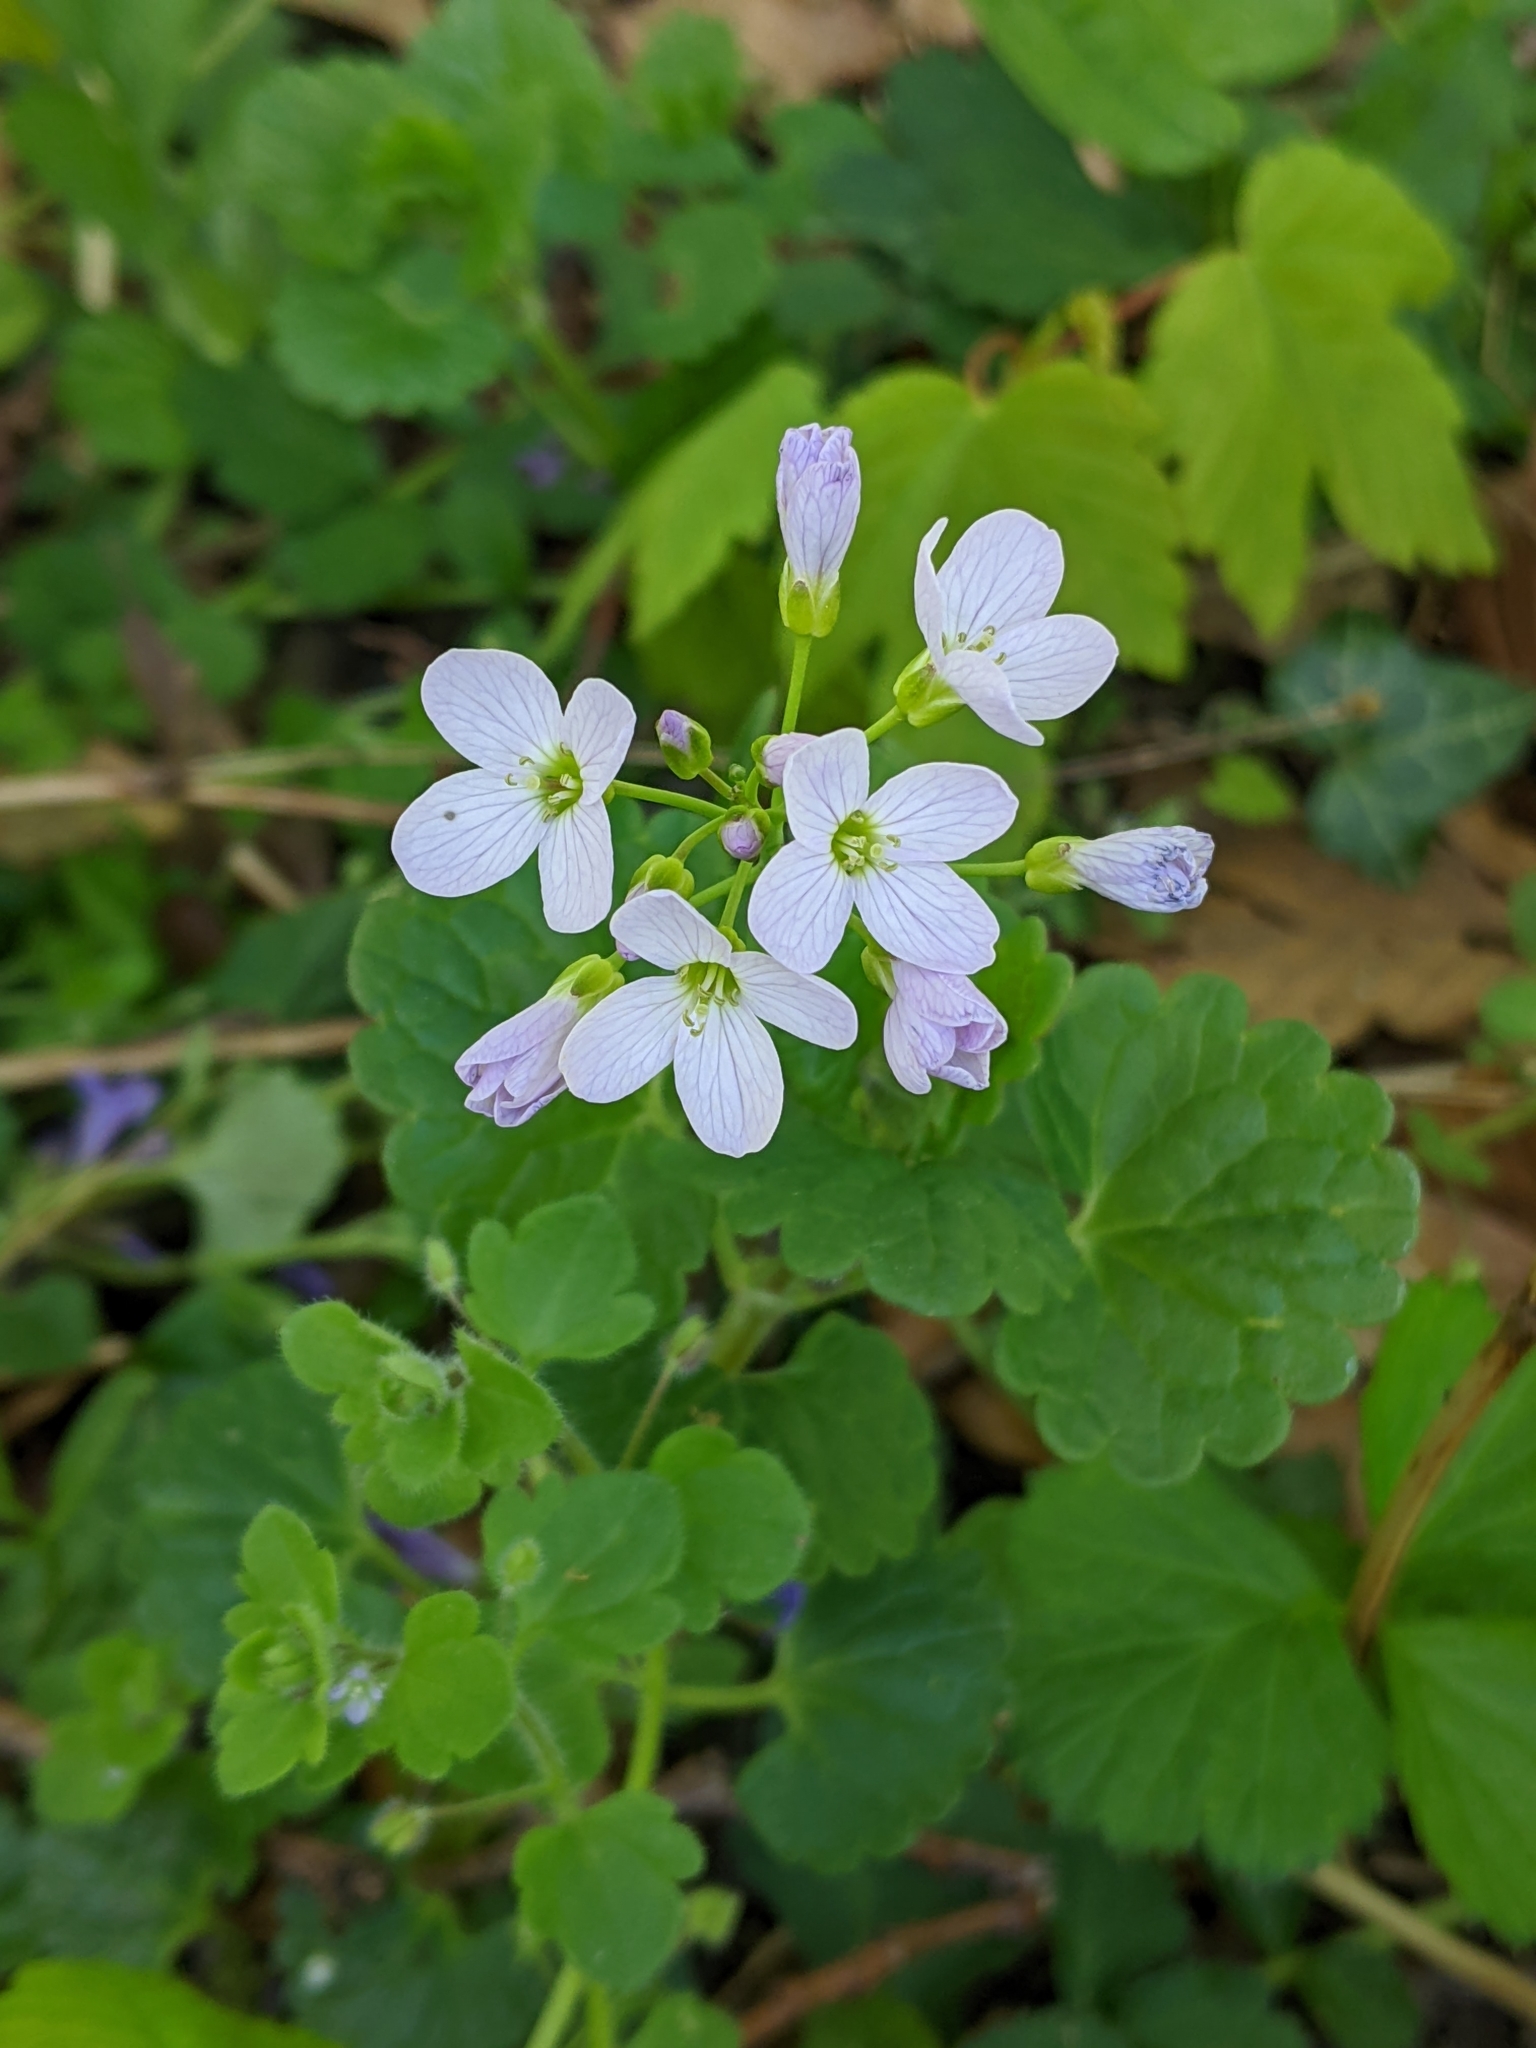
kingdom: Plantae
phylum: Tracheophyta
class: Magnoliopsida
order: Brassicales
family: Brassicaceae
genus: Cardamine
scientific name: Cardamine pratensis
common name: Cuckoo flower
